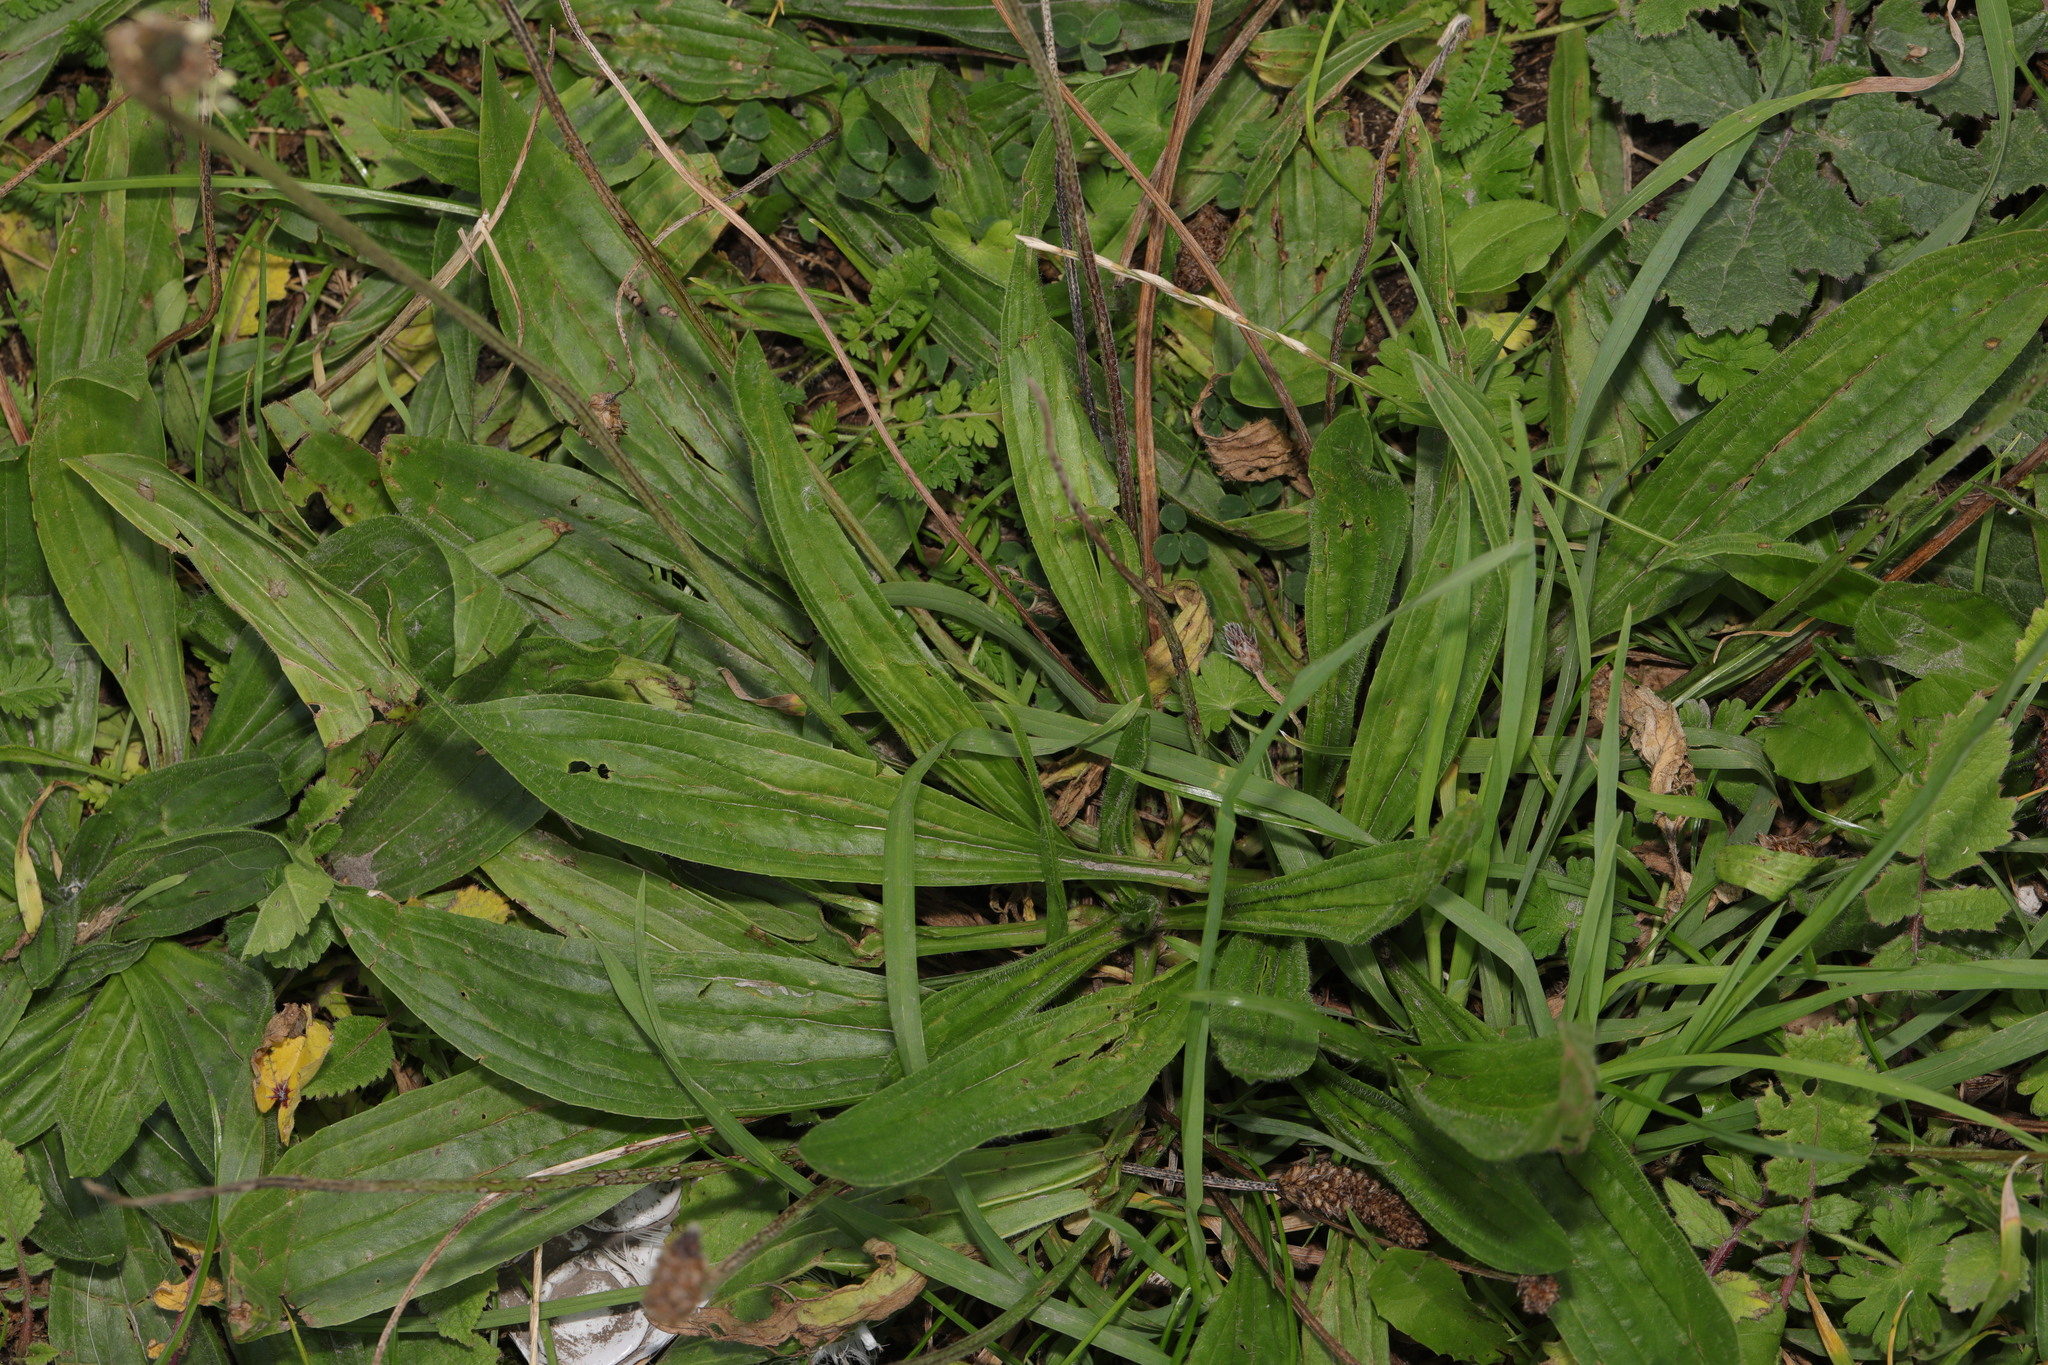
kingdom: Plantae
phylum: Tracheophyta
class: Magnoliopsida
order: Lamiales
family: Plantaginaceae
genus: Plantago
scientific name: Plantago lanceolata
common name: Ribwort plantain
